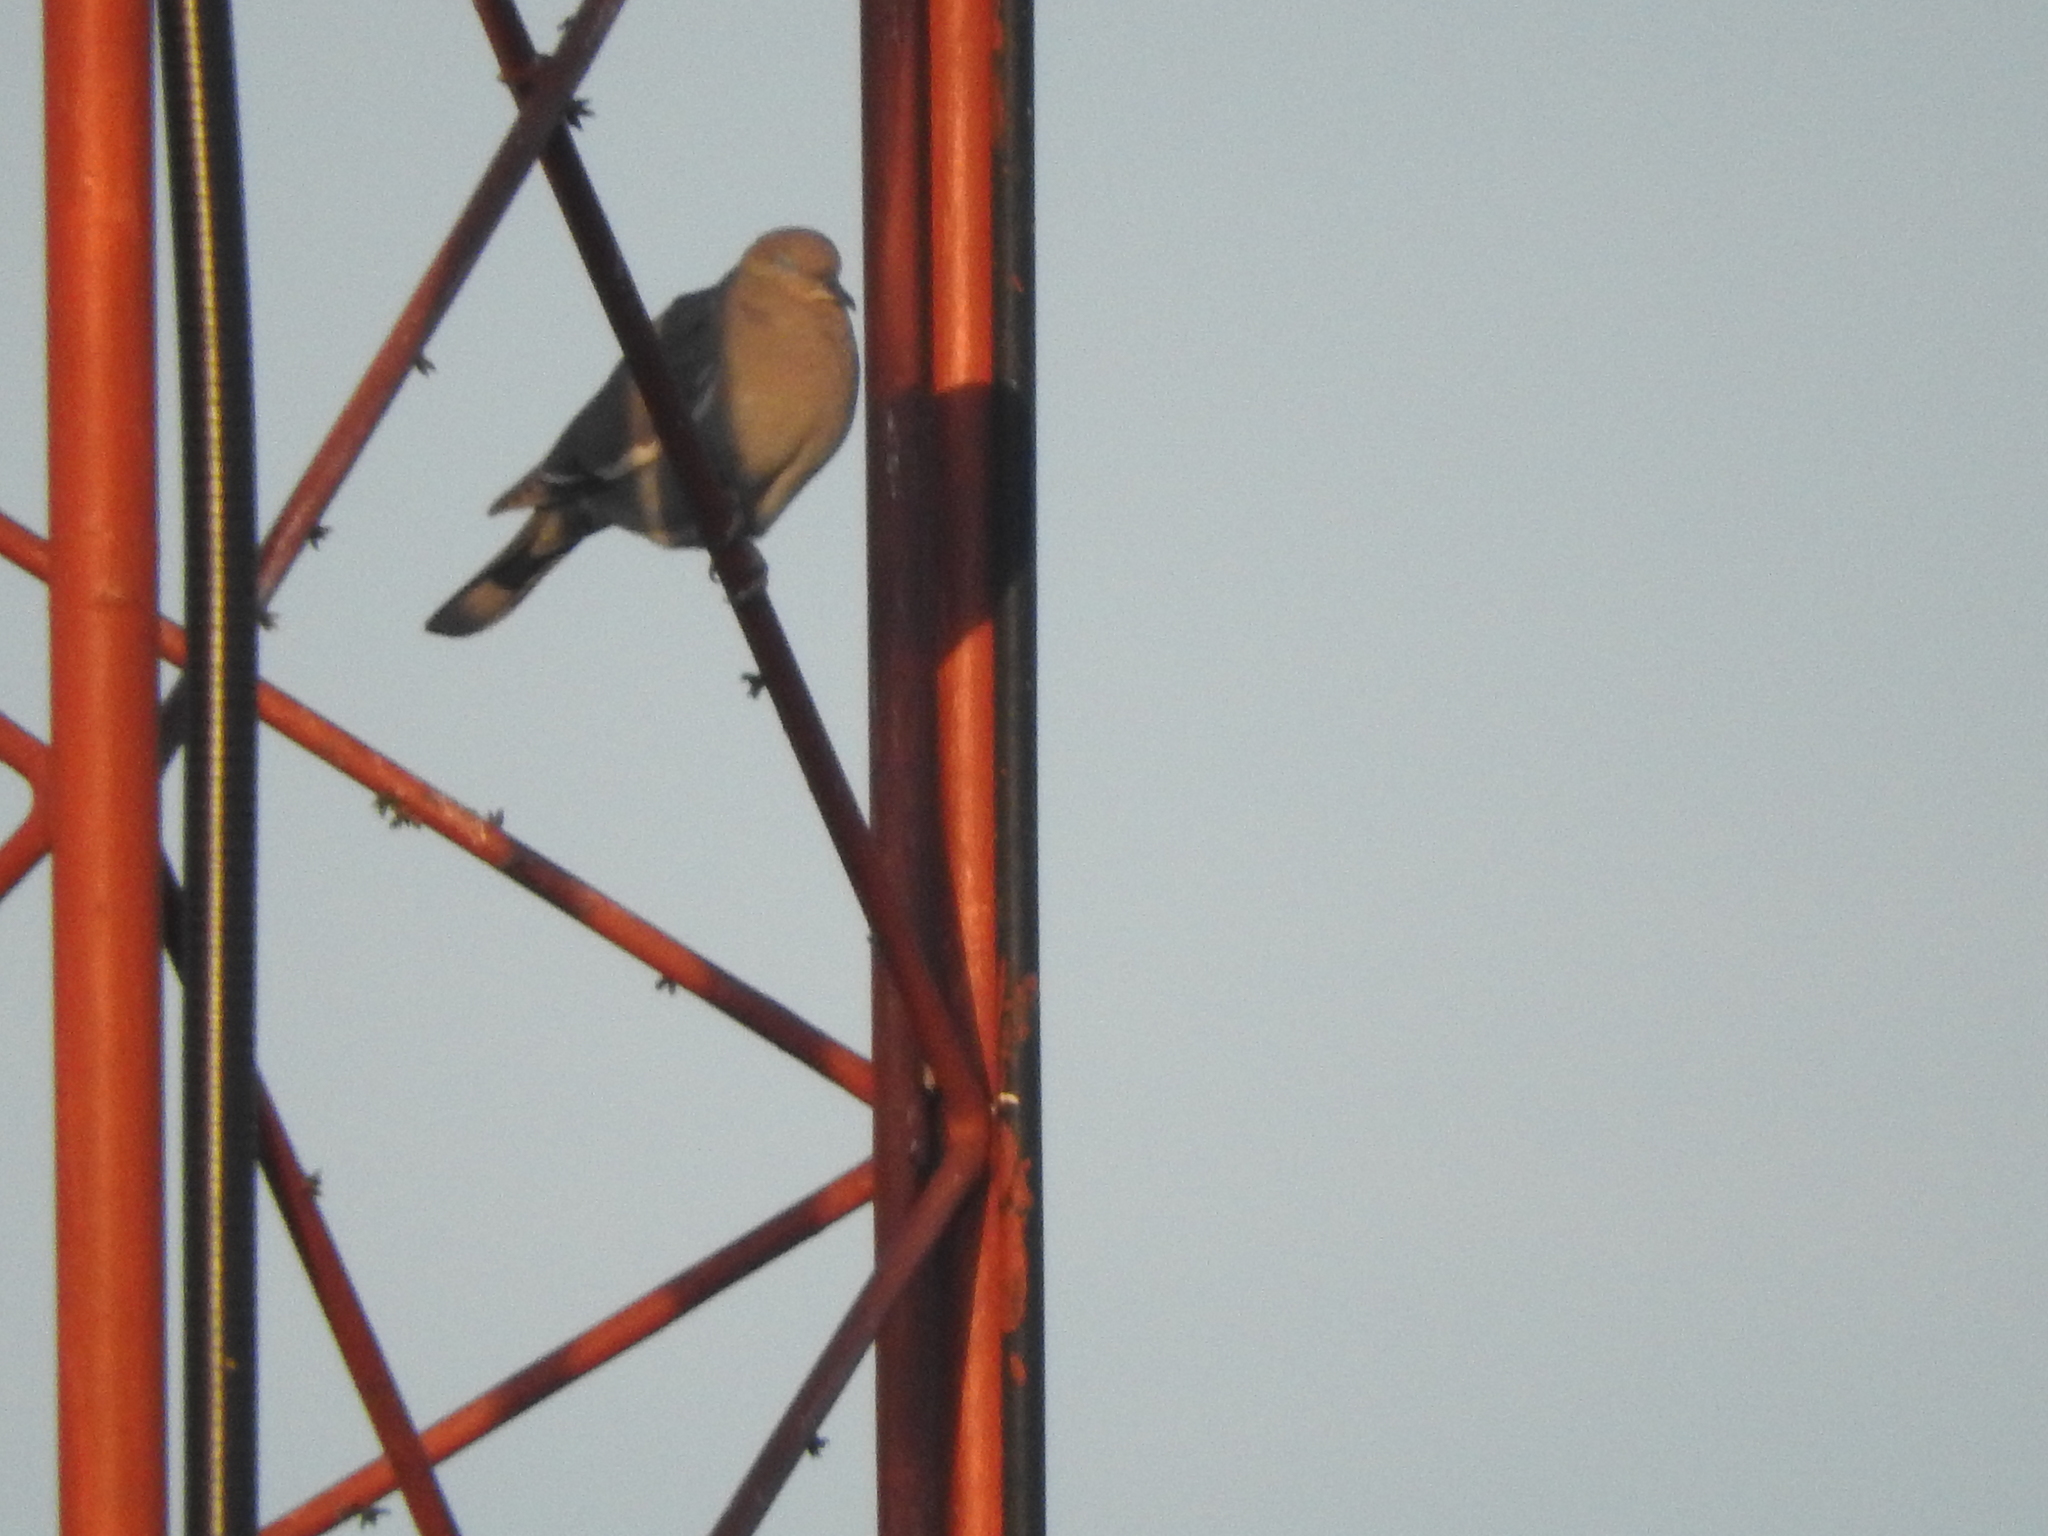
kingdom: Animalia
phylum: Chordata
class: Aves
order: Columbiformes
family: Columbidae
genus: Zenaida
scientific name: Zenaida asiatica
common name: White-winged dove
